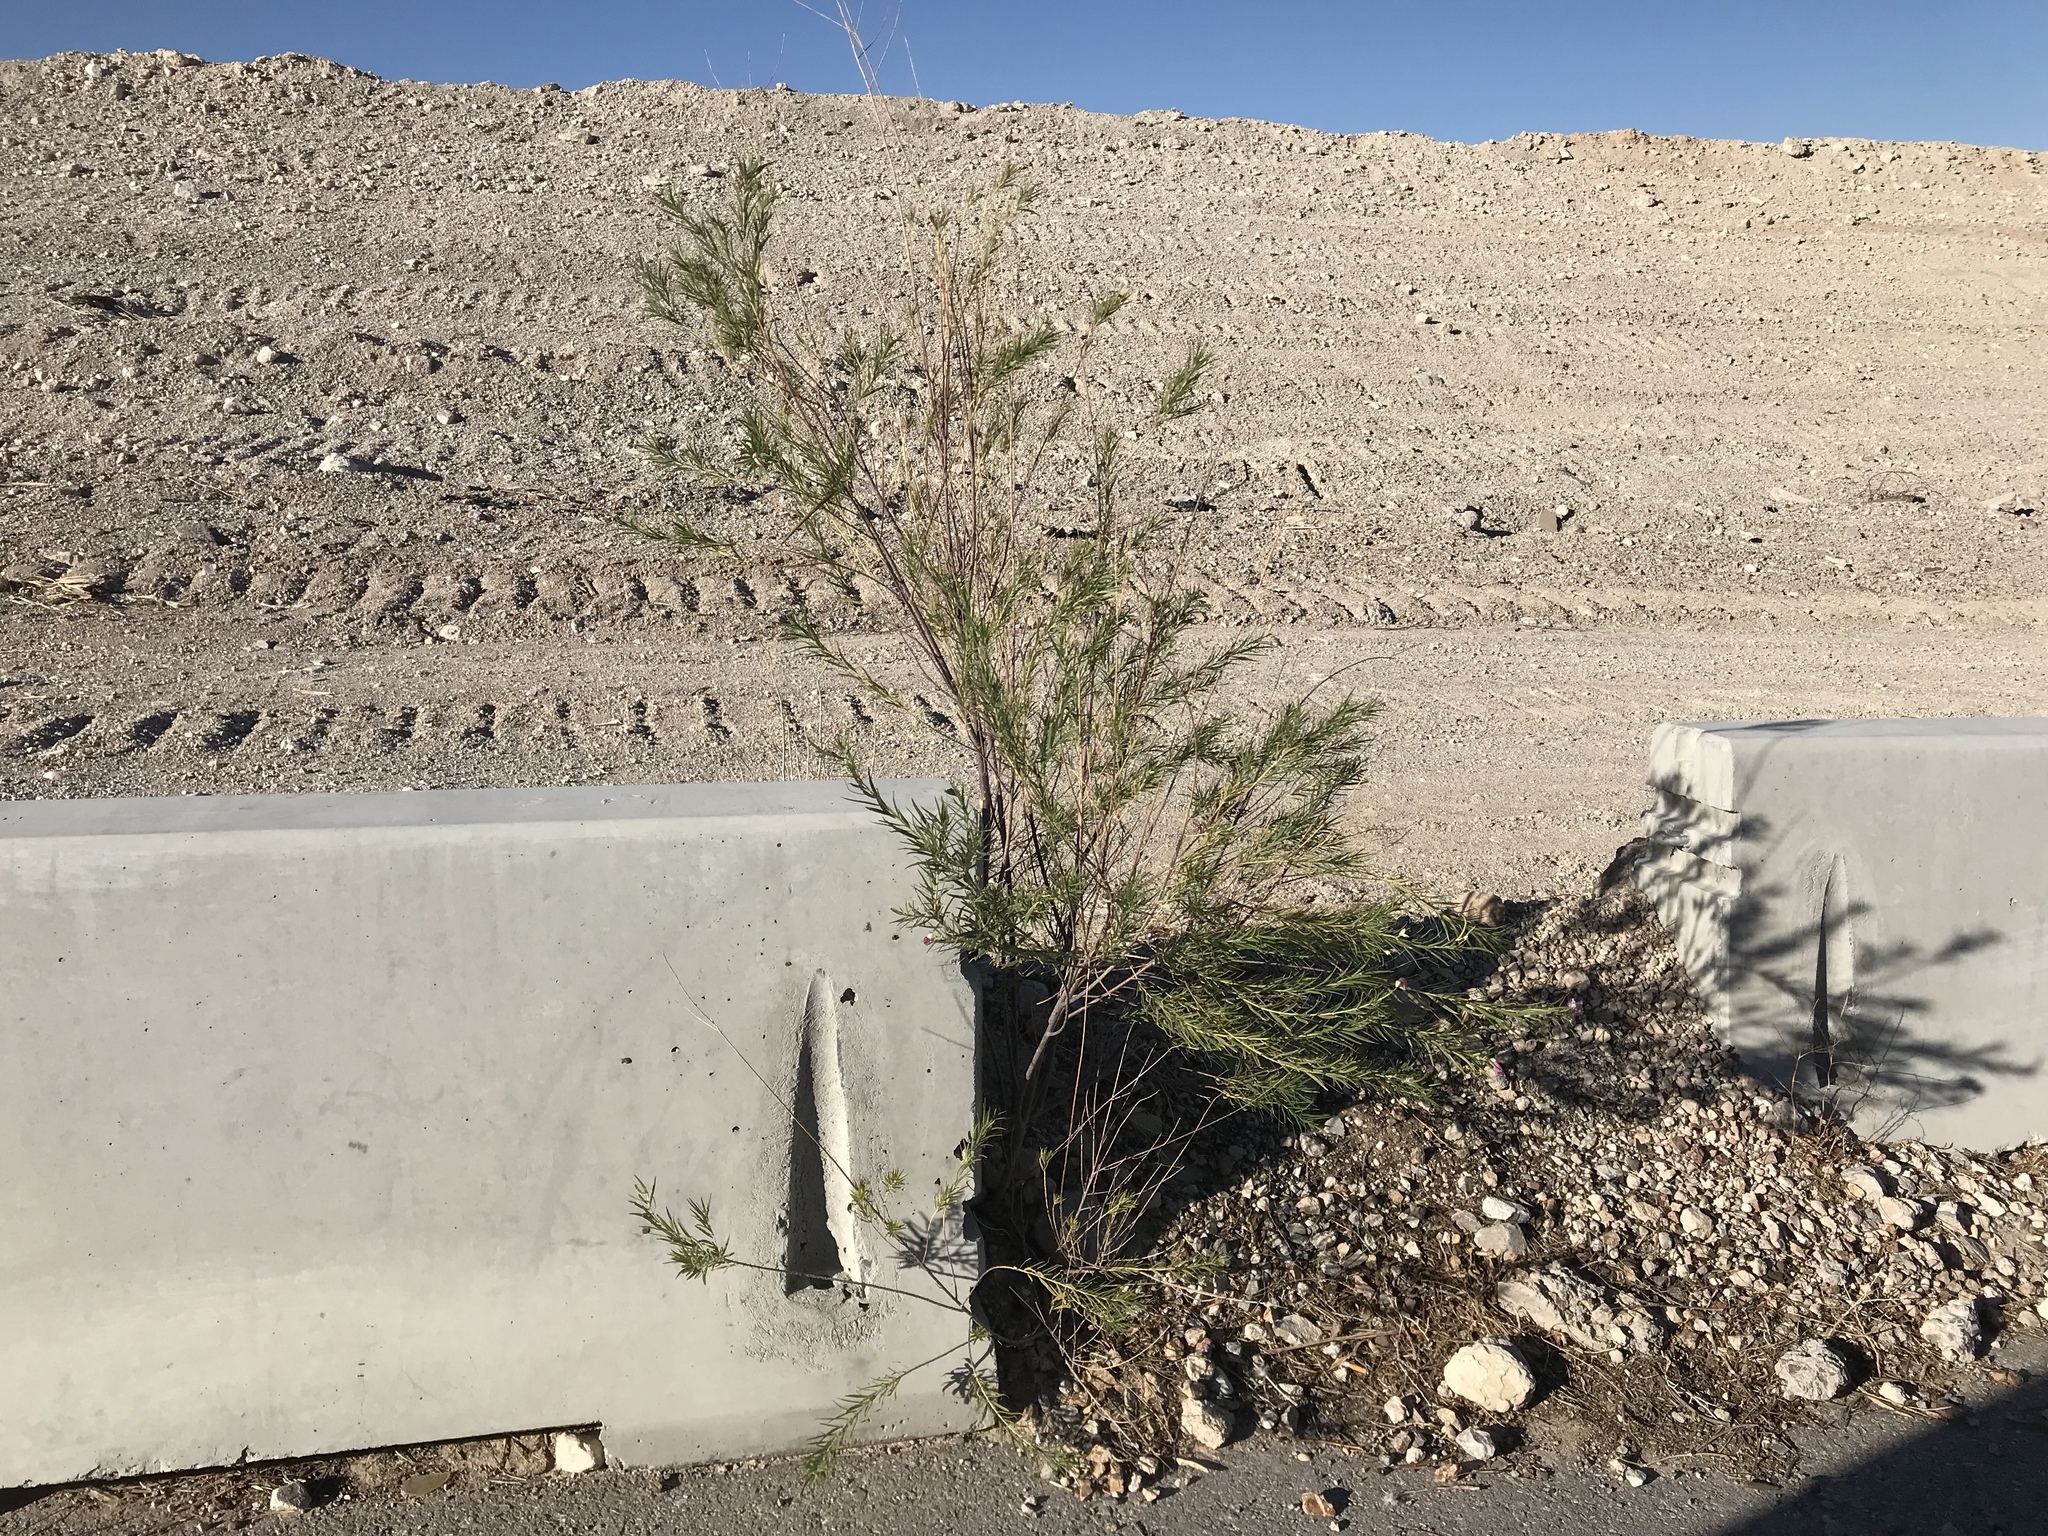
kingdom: Plantae
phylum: Tracheophyta
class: Magnoliopsida
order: Lamiales
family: Bignoniaceae
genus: Chilopsis
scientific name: Chilopsis linearis
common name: Desert-willow
